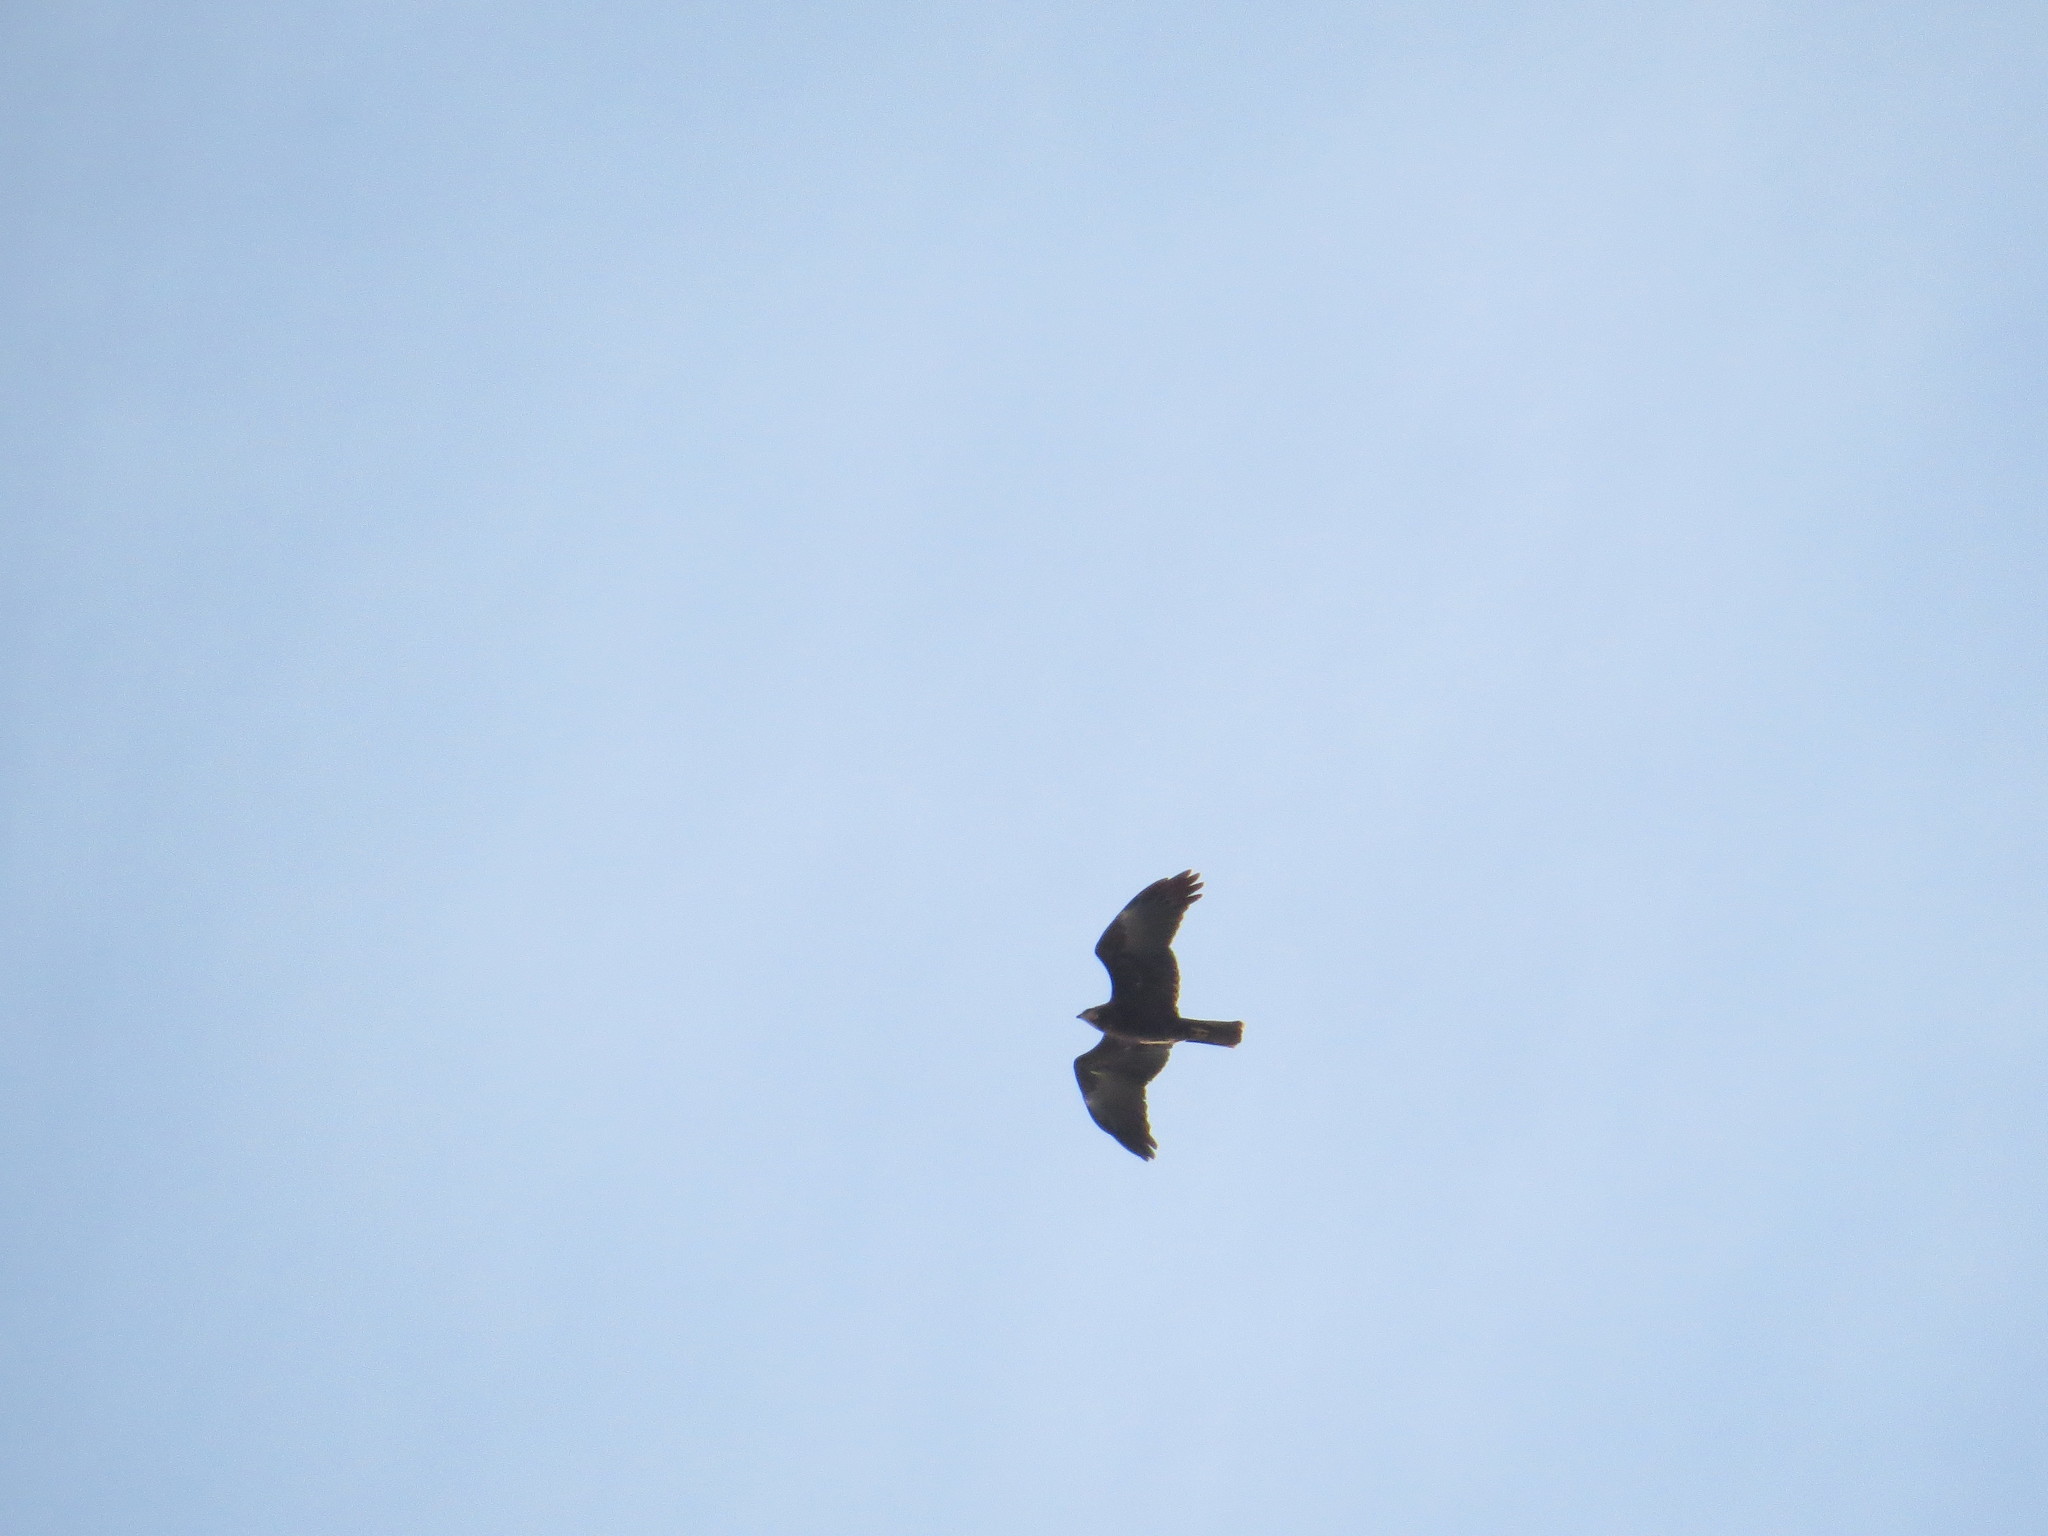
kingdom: Animalia
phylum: Chordata
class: Aves
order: Accipitriformes
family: Accipitridae
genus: Circus
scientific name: Circus aeruginosus
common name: Western marsh harrier
